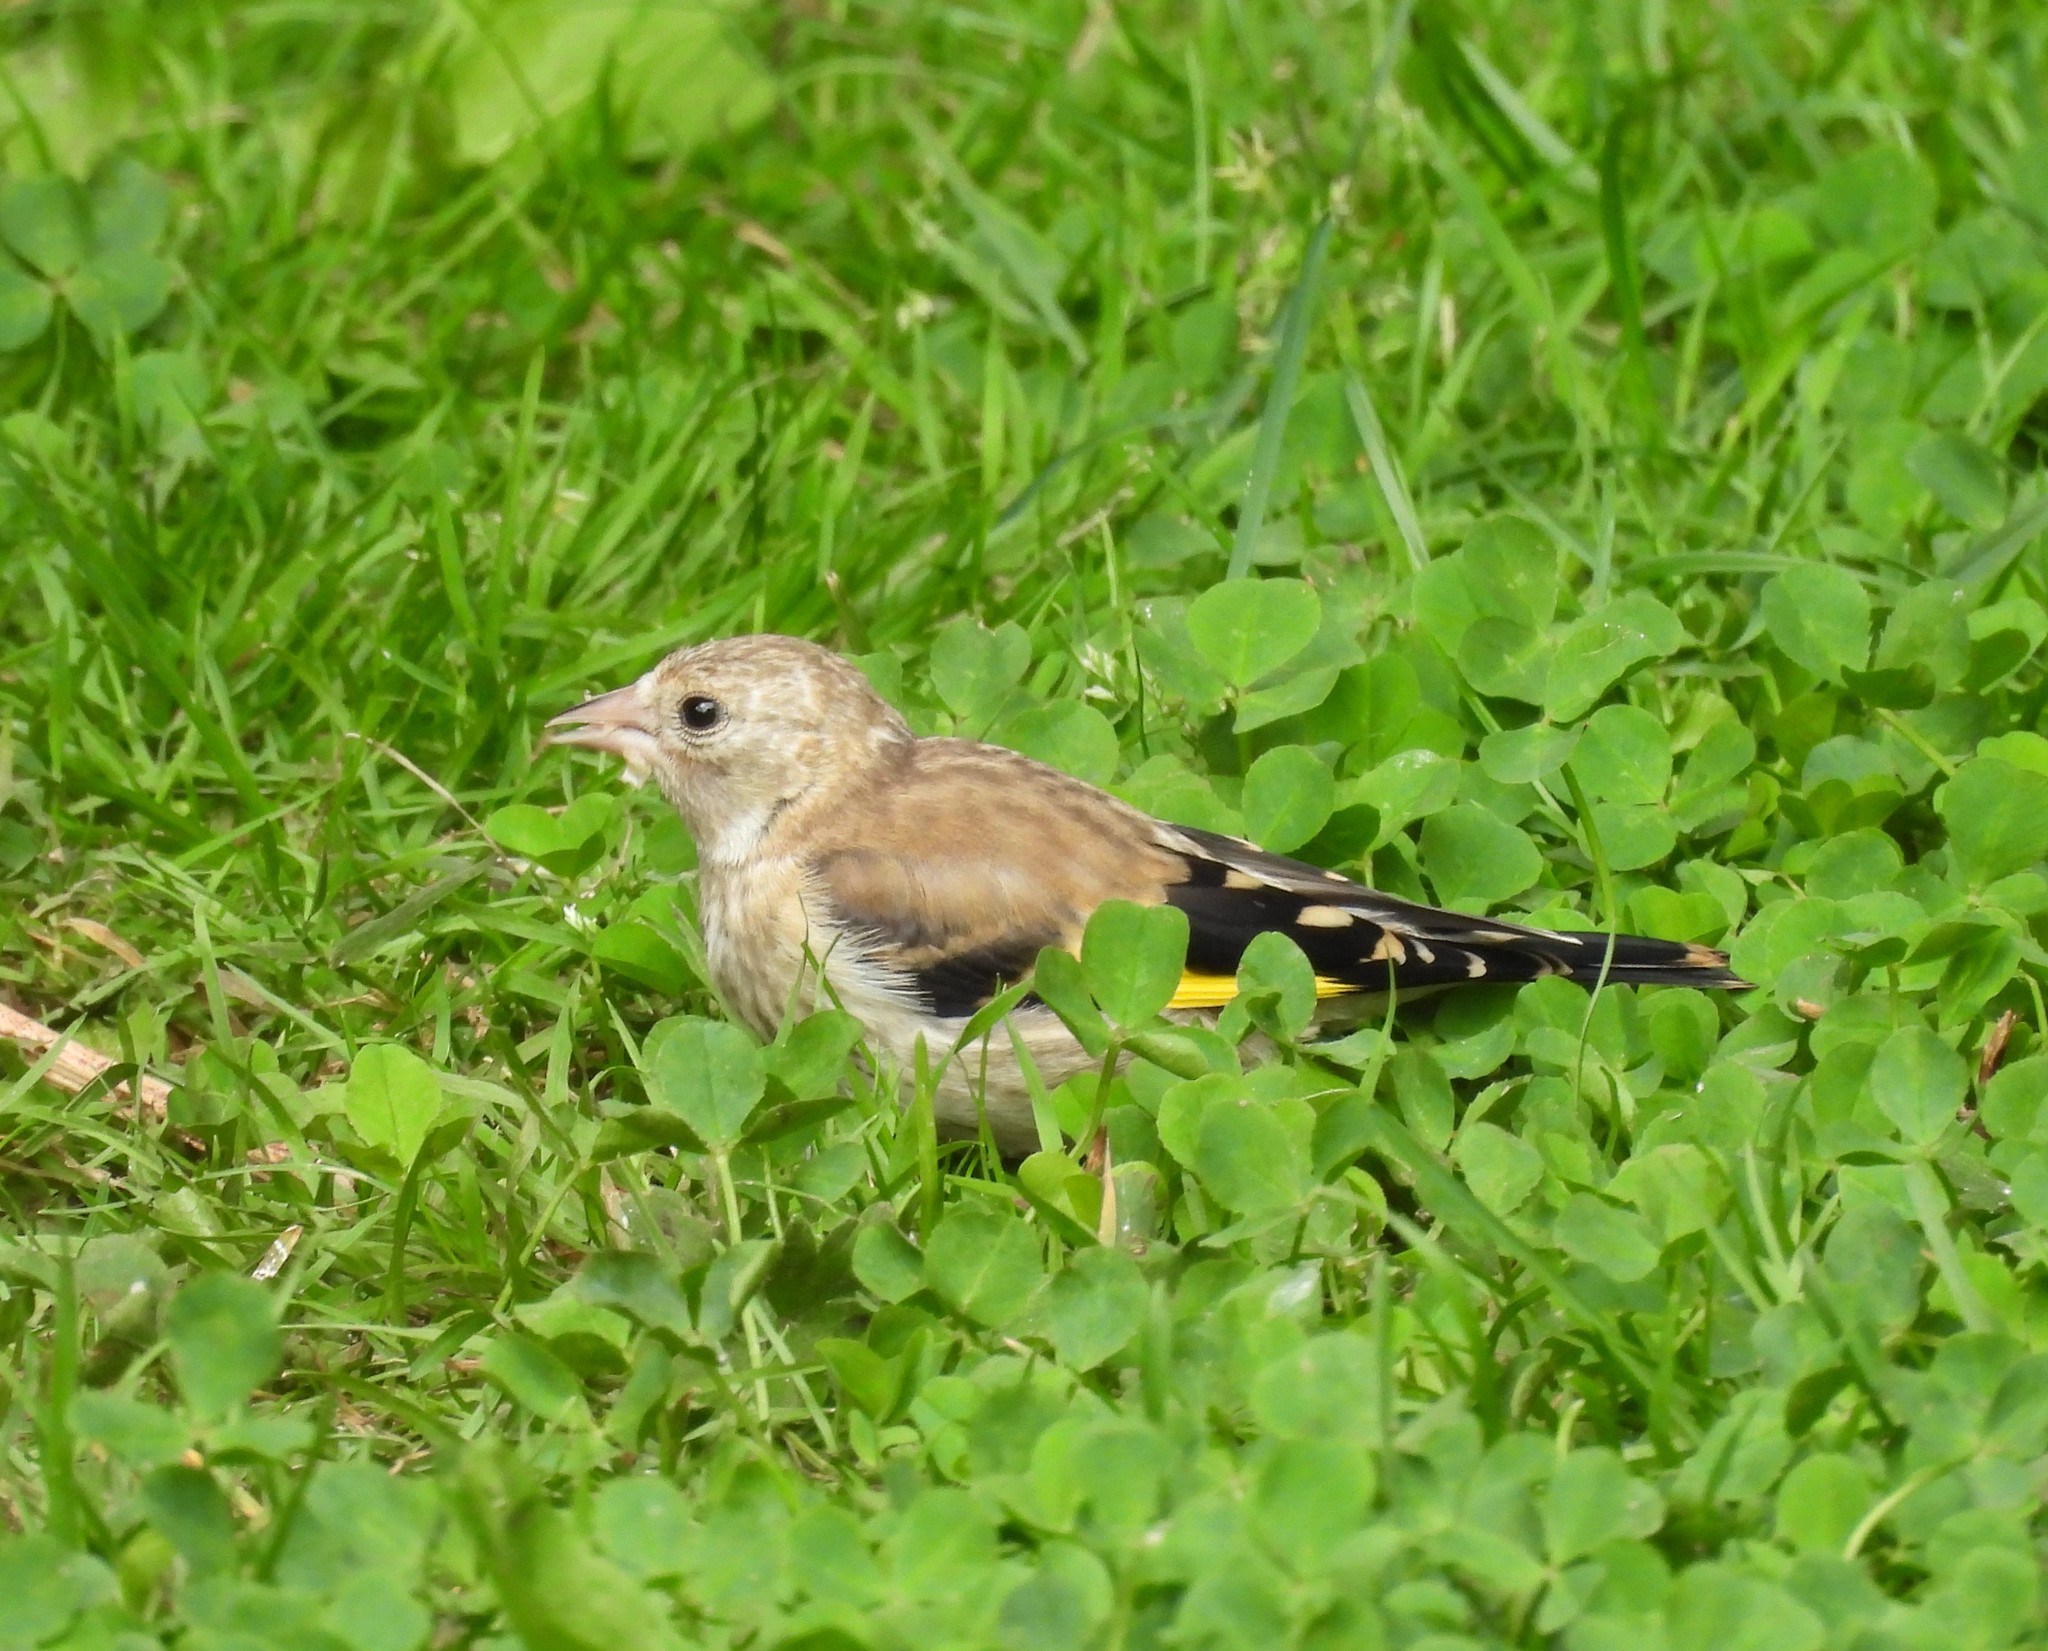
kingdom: Animalia
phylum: Chordata
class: Aves
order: Passeriformes
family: Fringillidae
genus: Carduelis
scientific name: Carduelis carduelis
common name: European goldfinch
